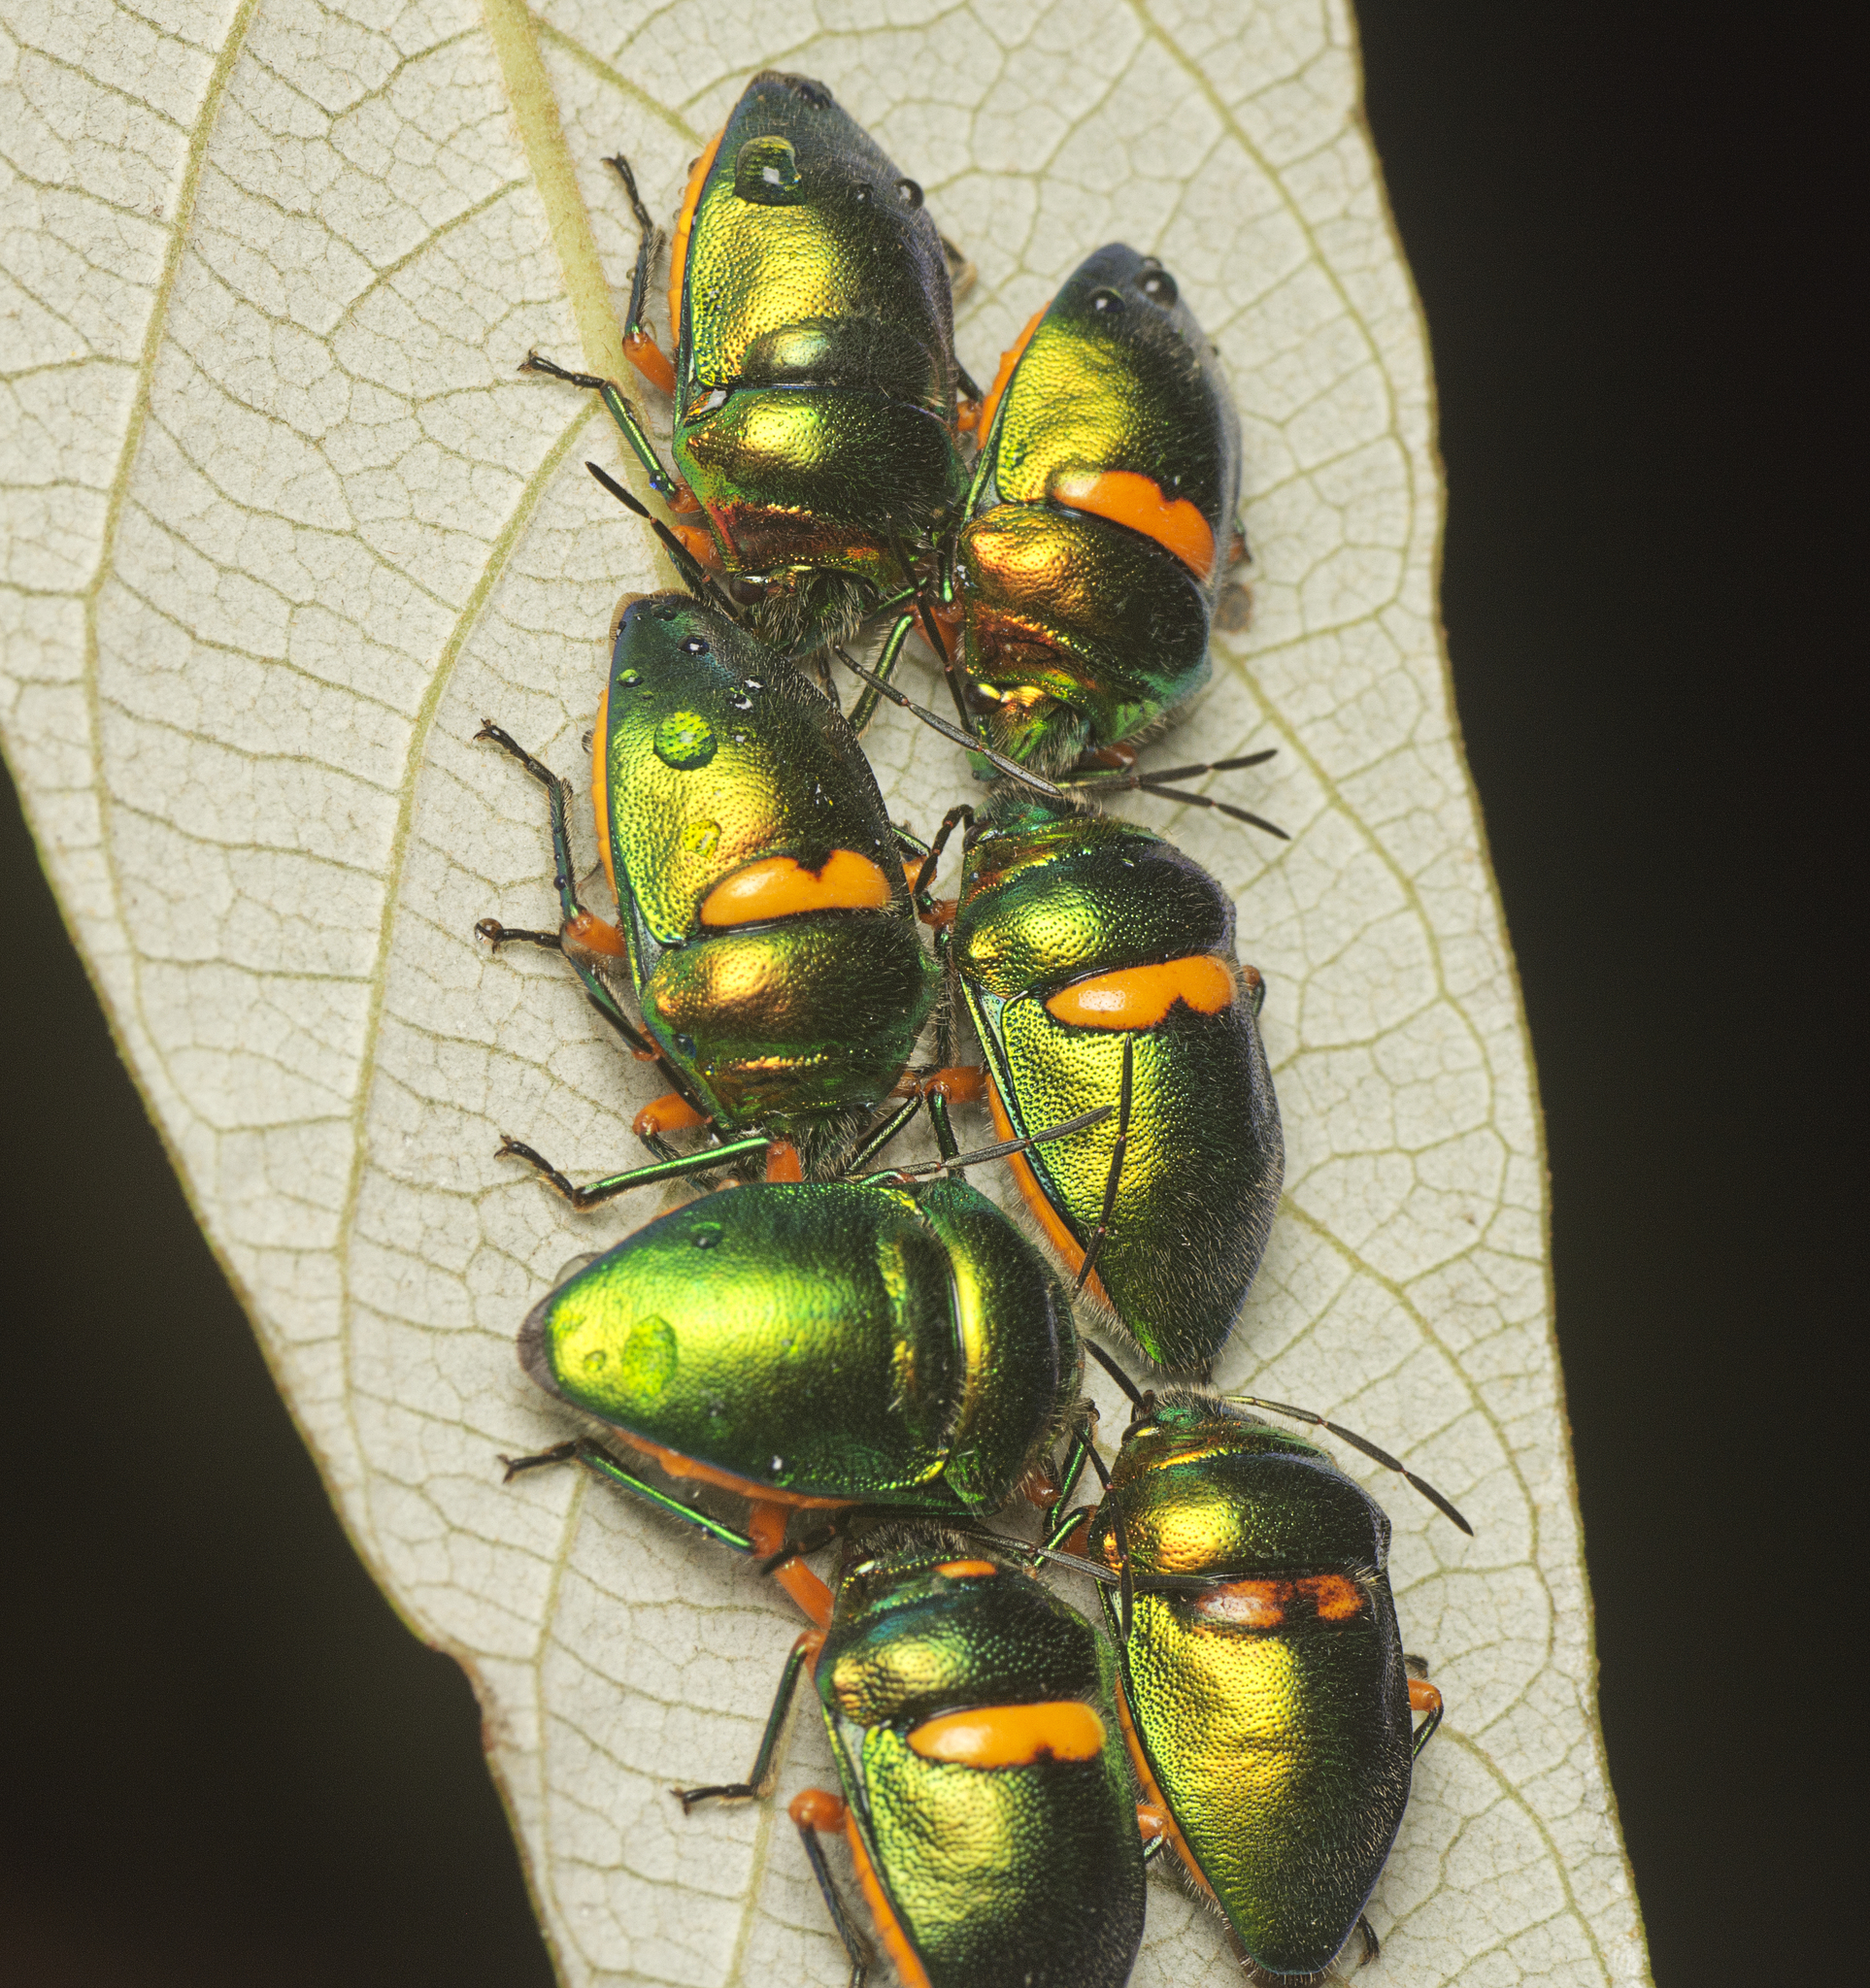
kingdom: Animalia
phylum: Arthropoda
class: Insecta
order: Hemiptera
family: Scutelleridae
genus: Lampromicra
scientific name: Lampromicra senator
